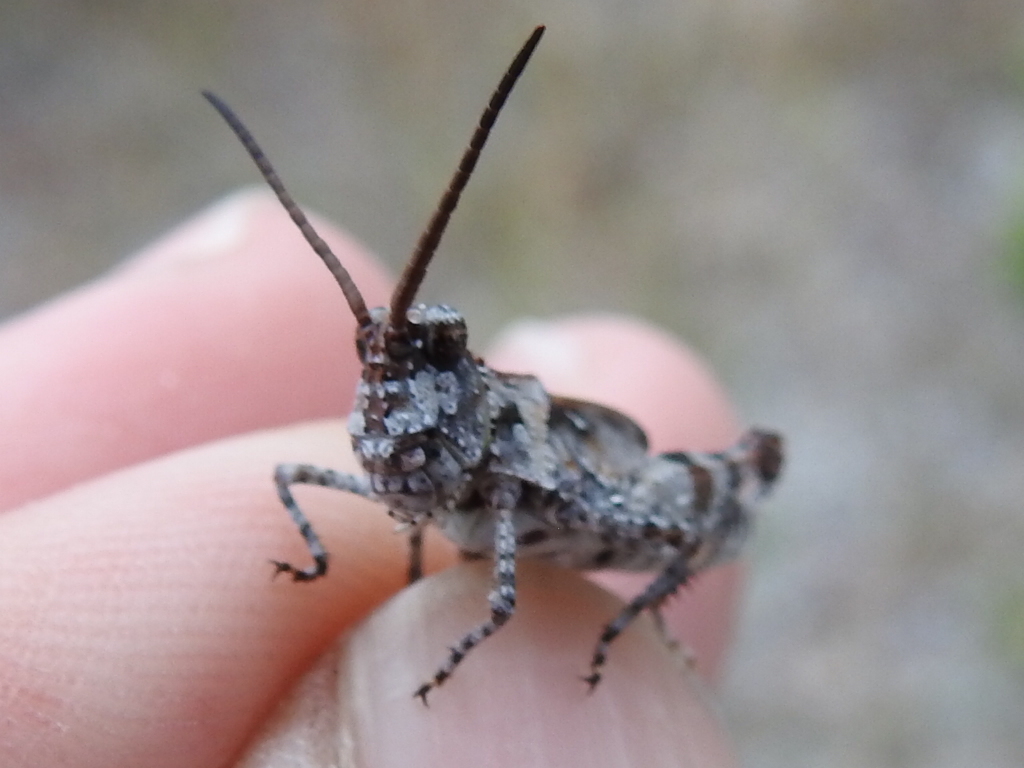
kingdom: Animalia
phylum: Arthropoda
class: Insecta
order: Orthoptera
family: Acrididae
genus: Psinidia
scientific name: Psinidia fenestralis
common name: Long-horned locust
